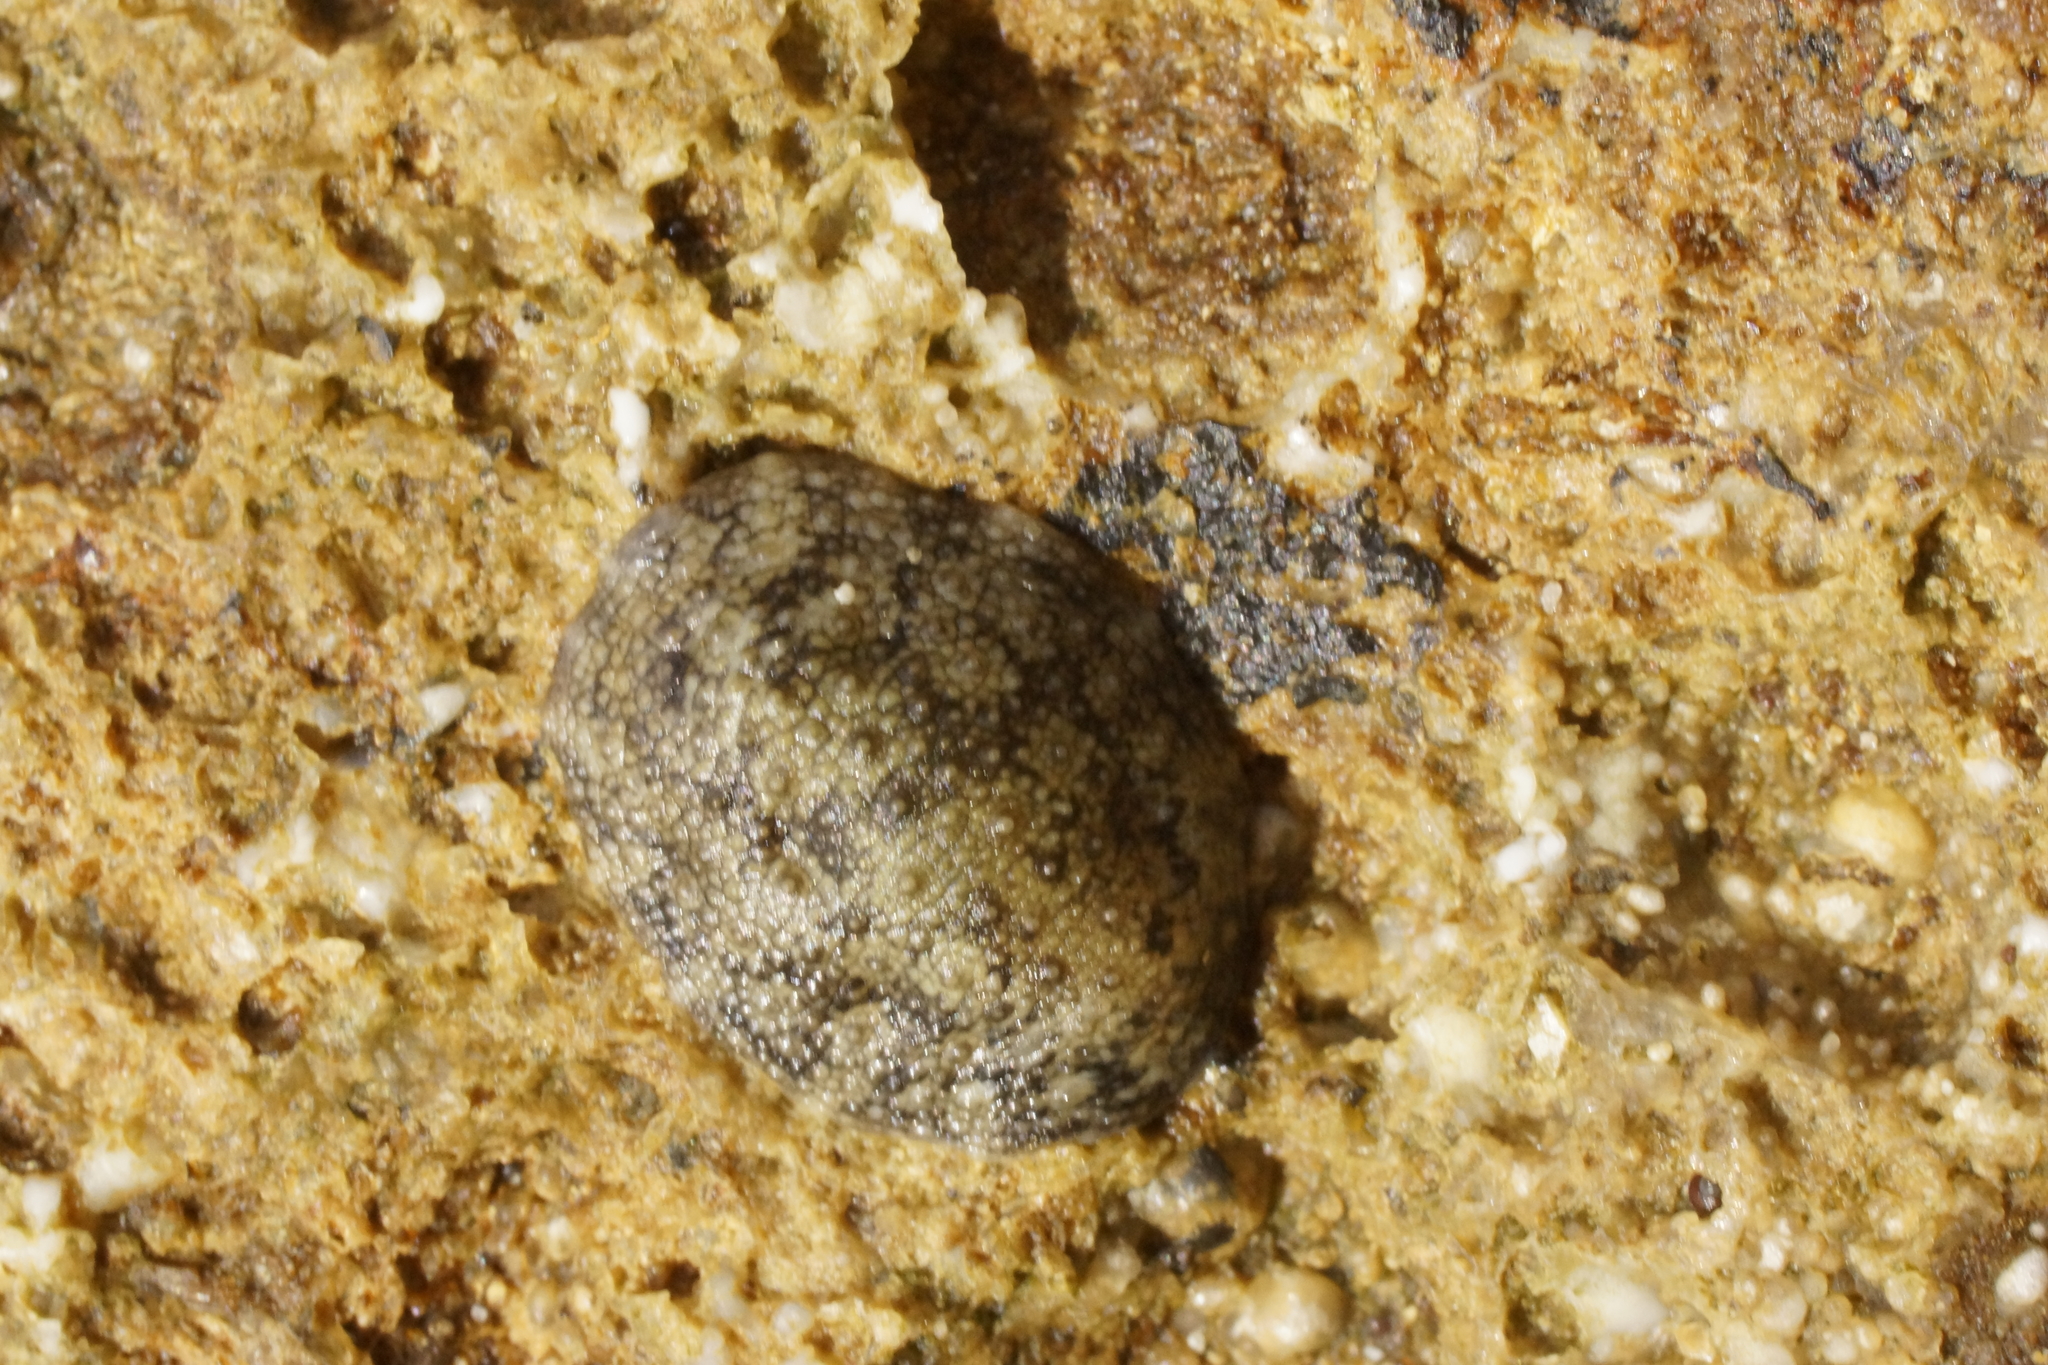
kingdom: Animalia
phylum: Mollusca
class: Gastropoda
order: Systellommatophora
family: Onchidiidae
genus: Onchidella
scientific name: Onchidella nigricans
